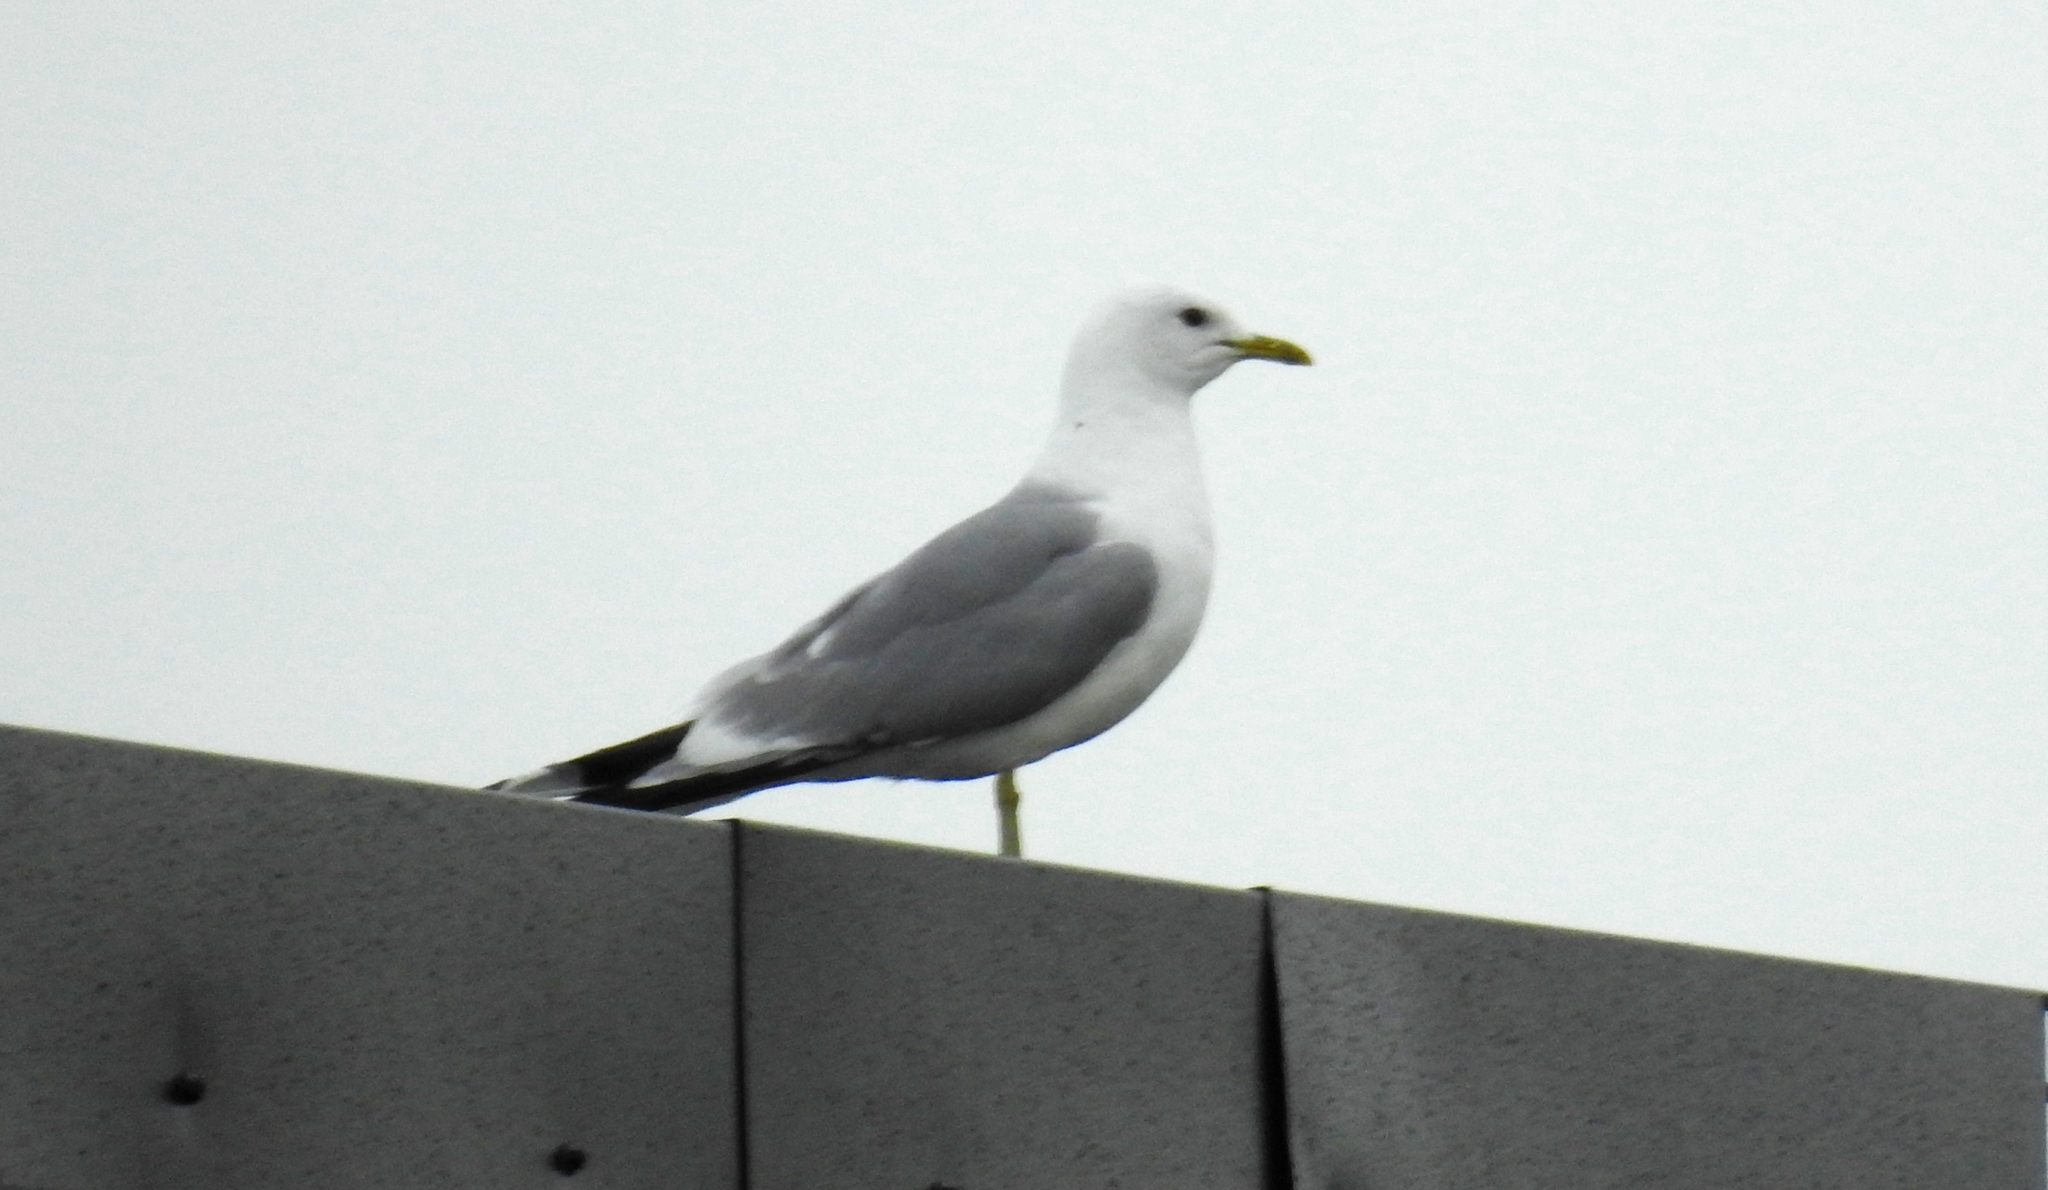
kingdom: Animalia
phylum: Chordata
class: Aves
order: Charadriiformes
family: Laridae
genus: Larus
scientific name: Larus canus
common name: Mew gull
